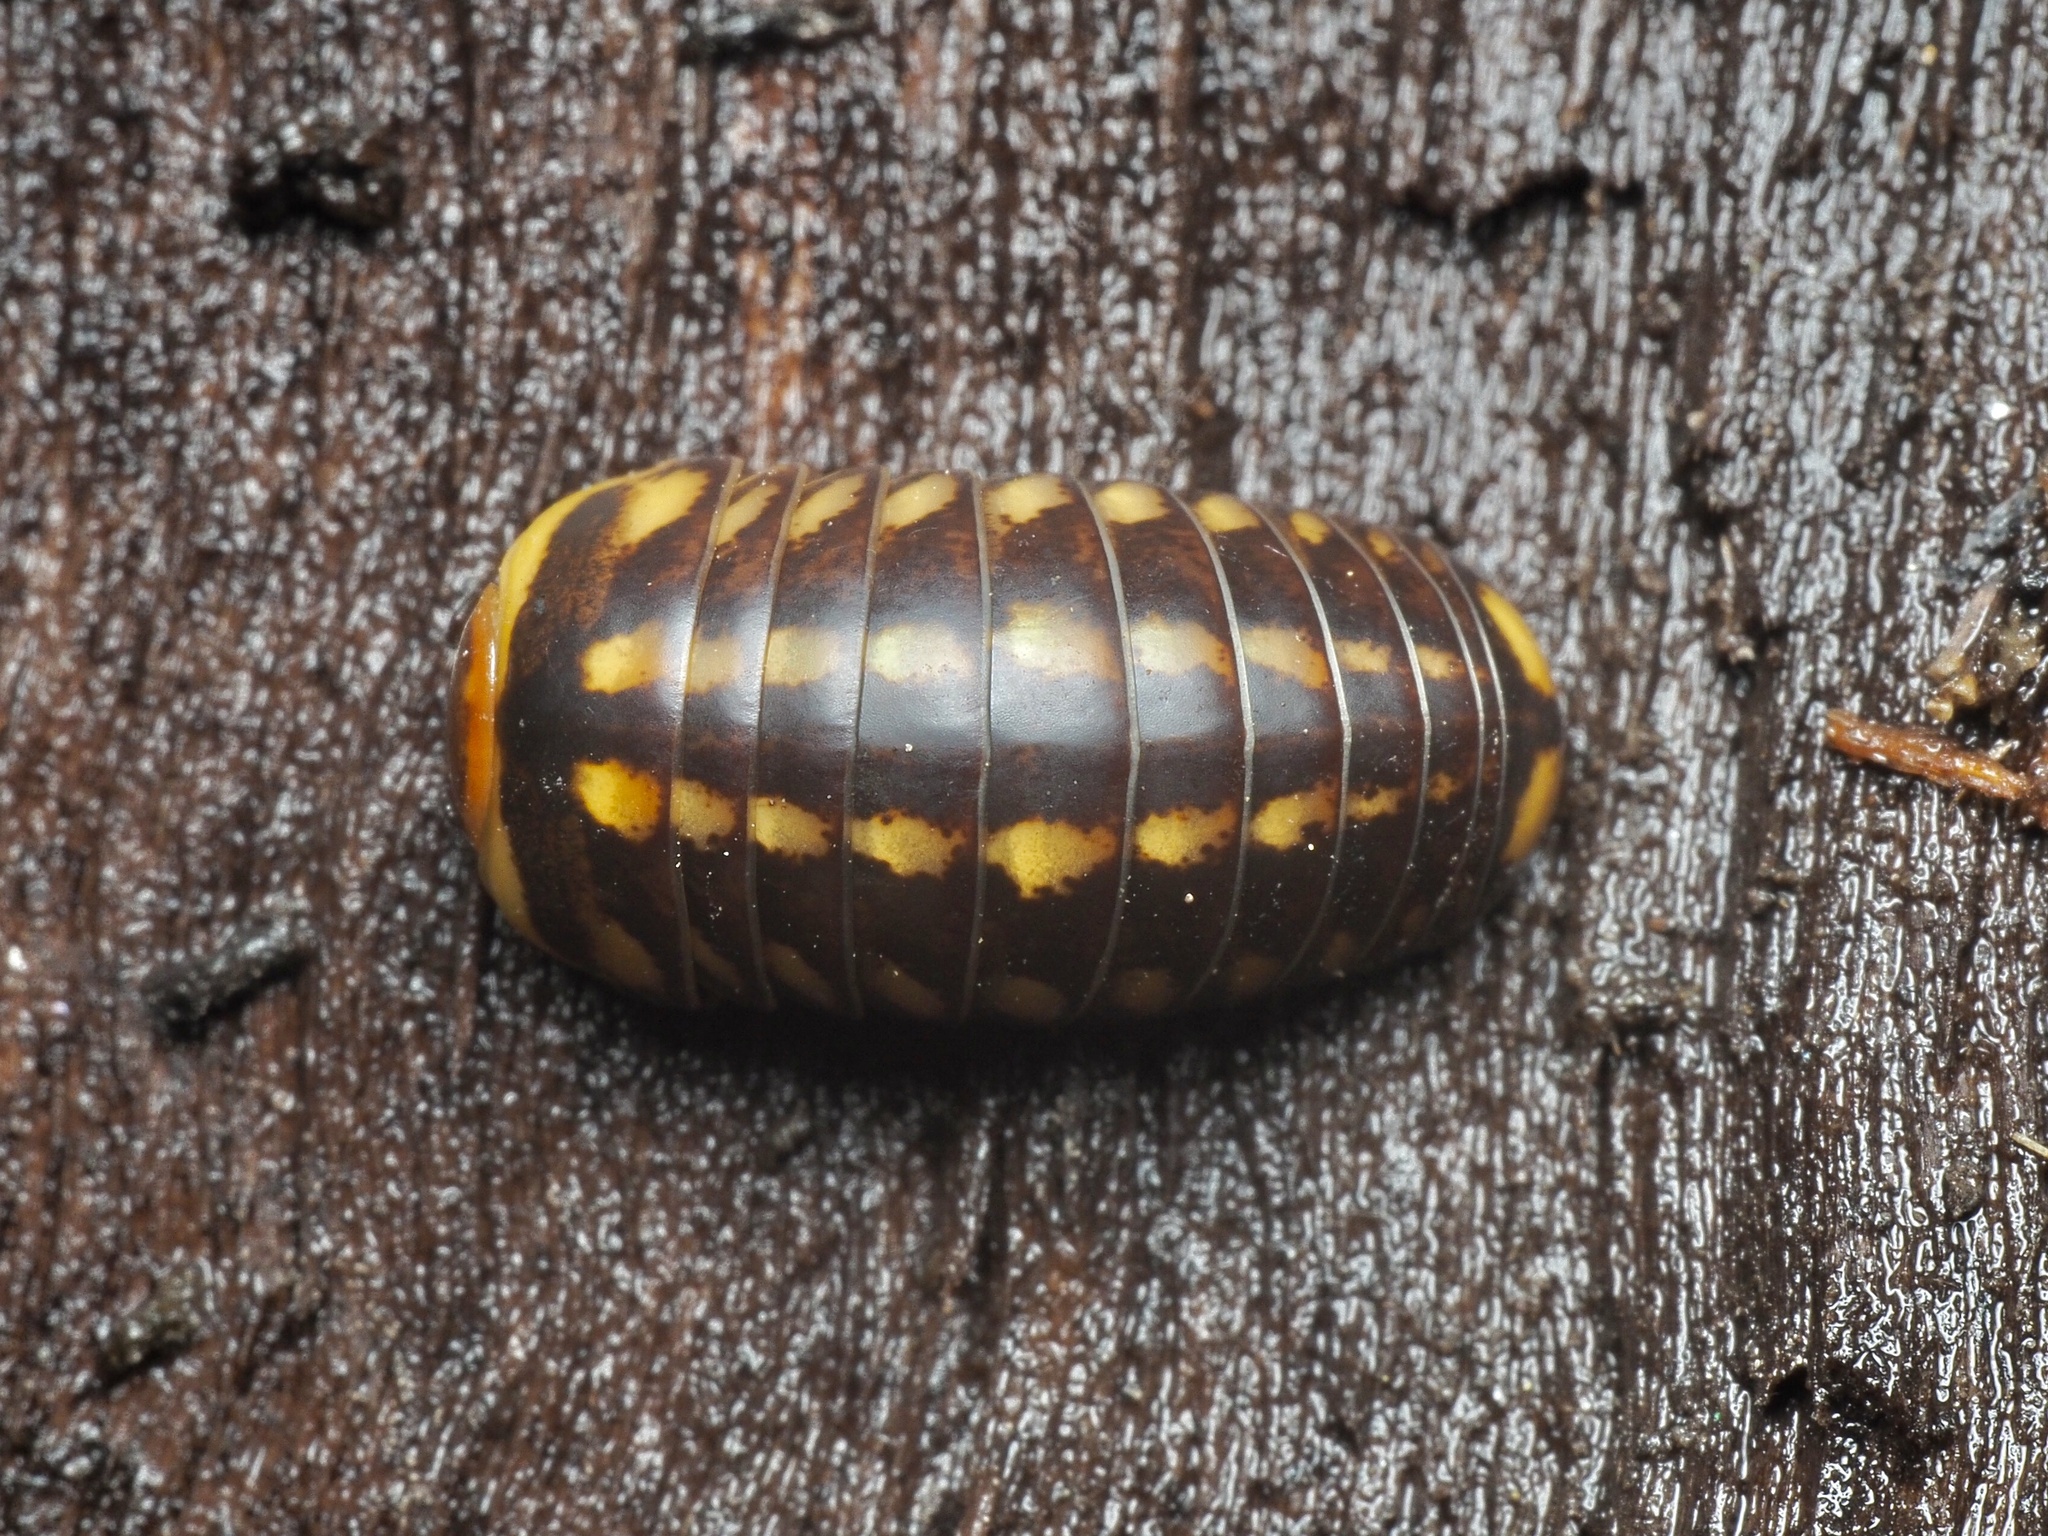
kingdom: Animalia
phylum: Arthropoda
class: Diplopoda
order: Glomerida
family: Glomeridae
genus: Glomeris
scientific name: Glomeris klugii
